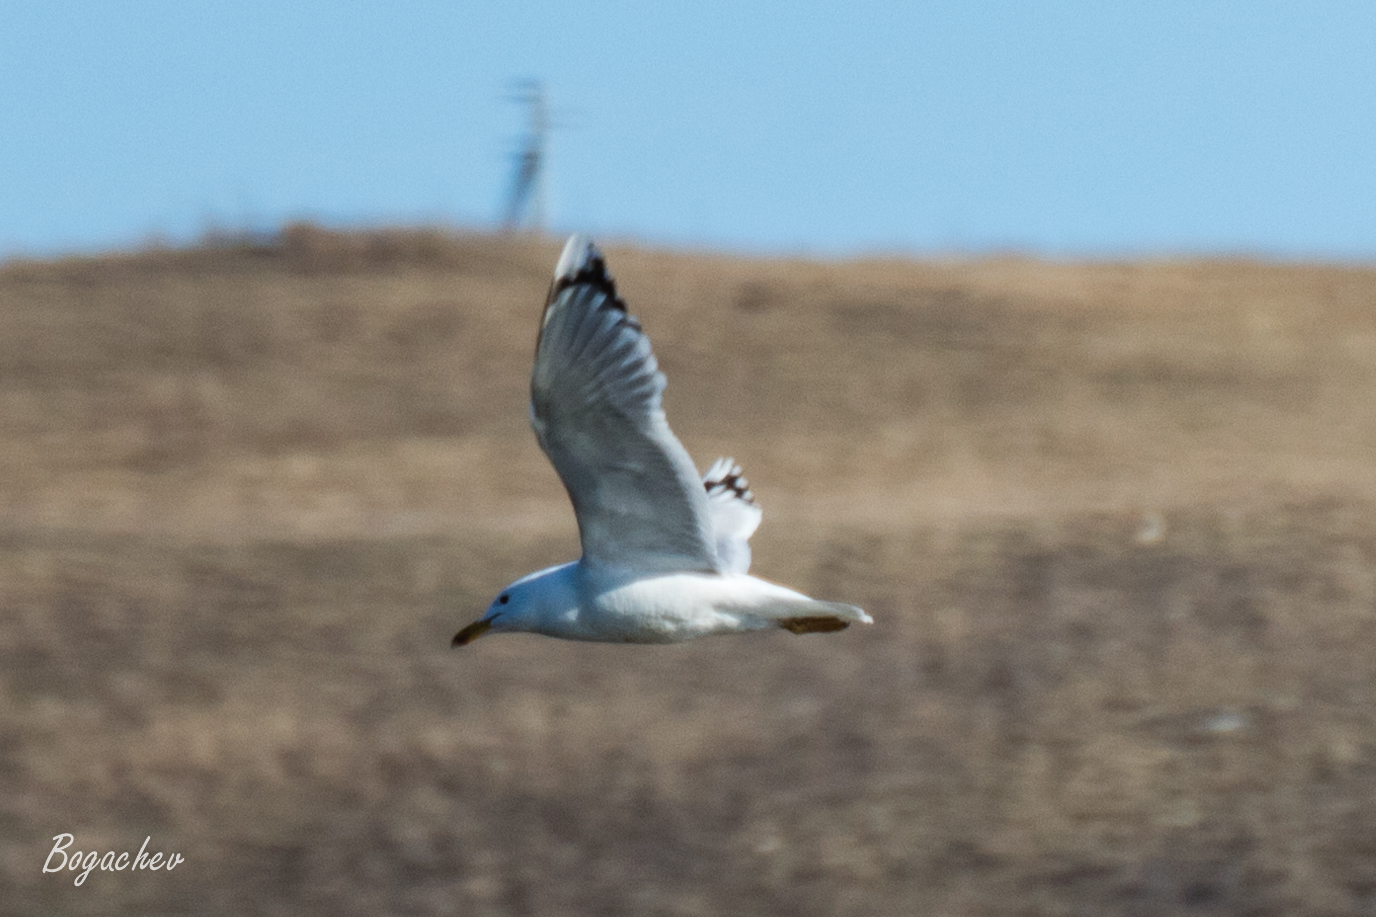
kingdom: Animalia
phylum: Chordata
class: Aves
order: Charadriiformes
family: Laridae
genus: Larus
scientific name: Larus cachinnans
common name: Caspian gull
